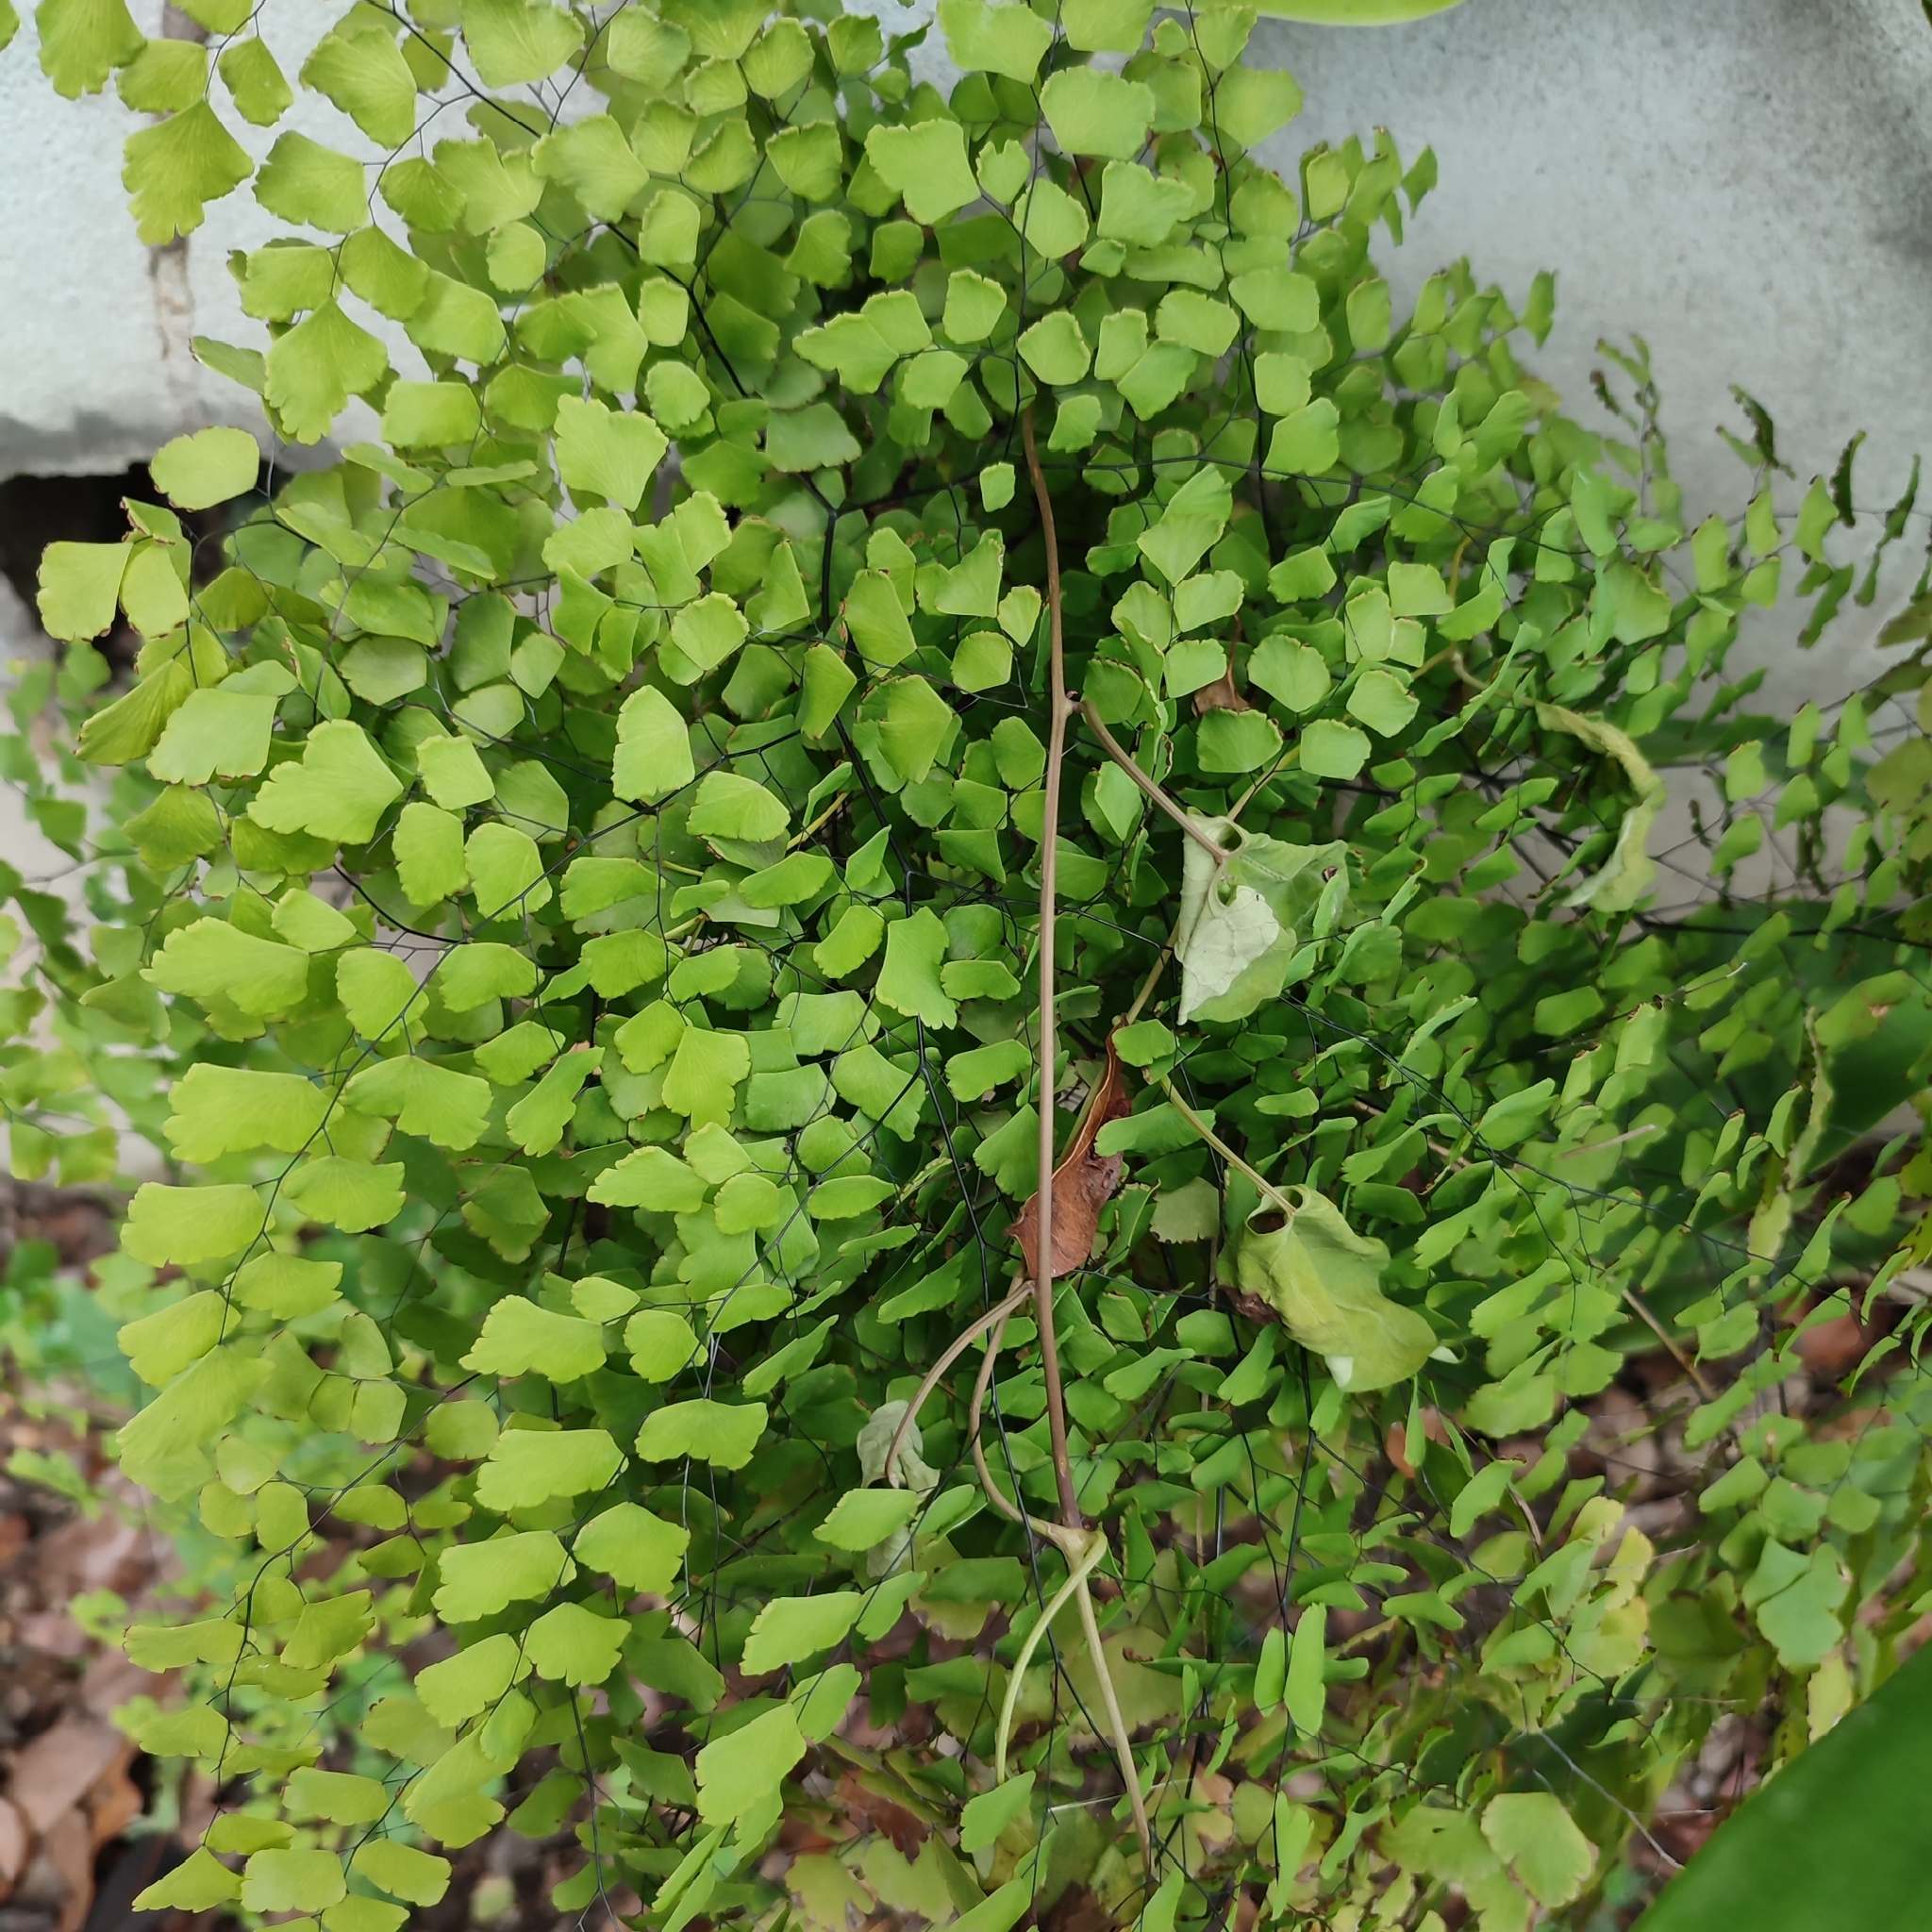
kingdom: Plantae
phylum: Tracheophyta
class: Polypodiopsida
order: Polypodiales
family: Pteridaceae
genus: Adiantum
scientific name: Adiantum tenerum
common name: Fan maidenhair
